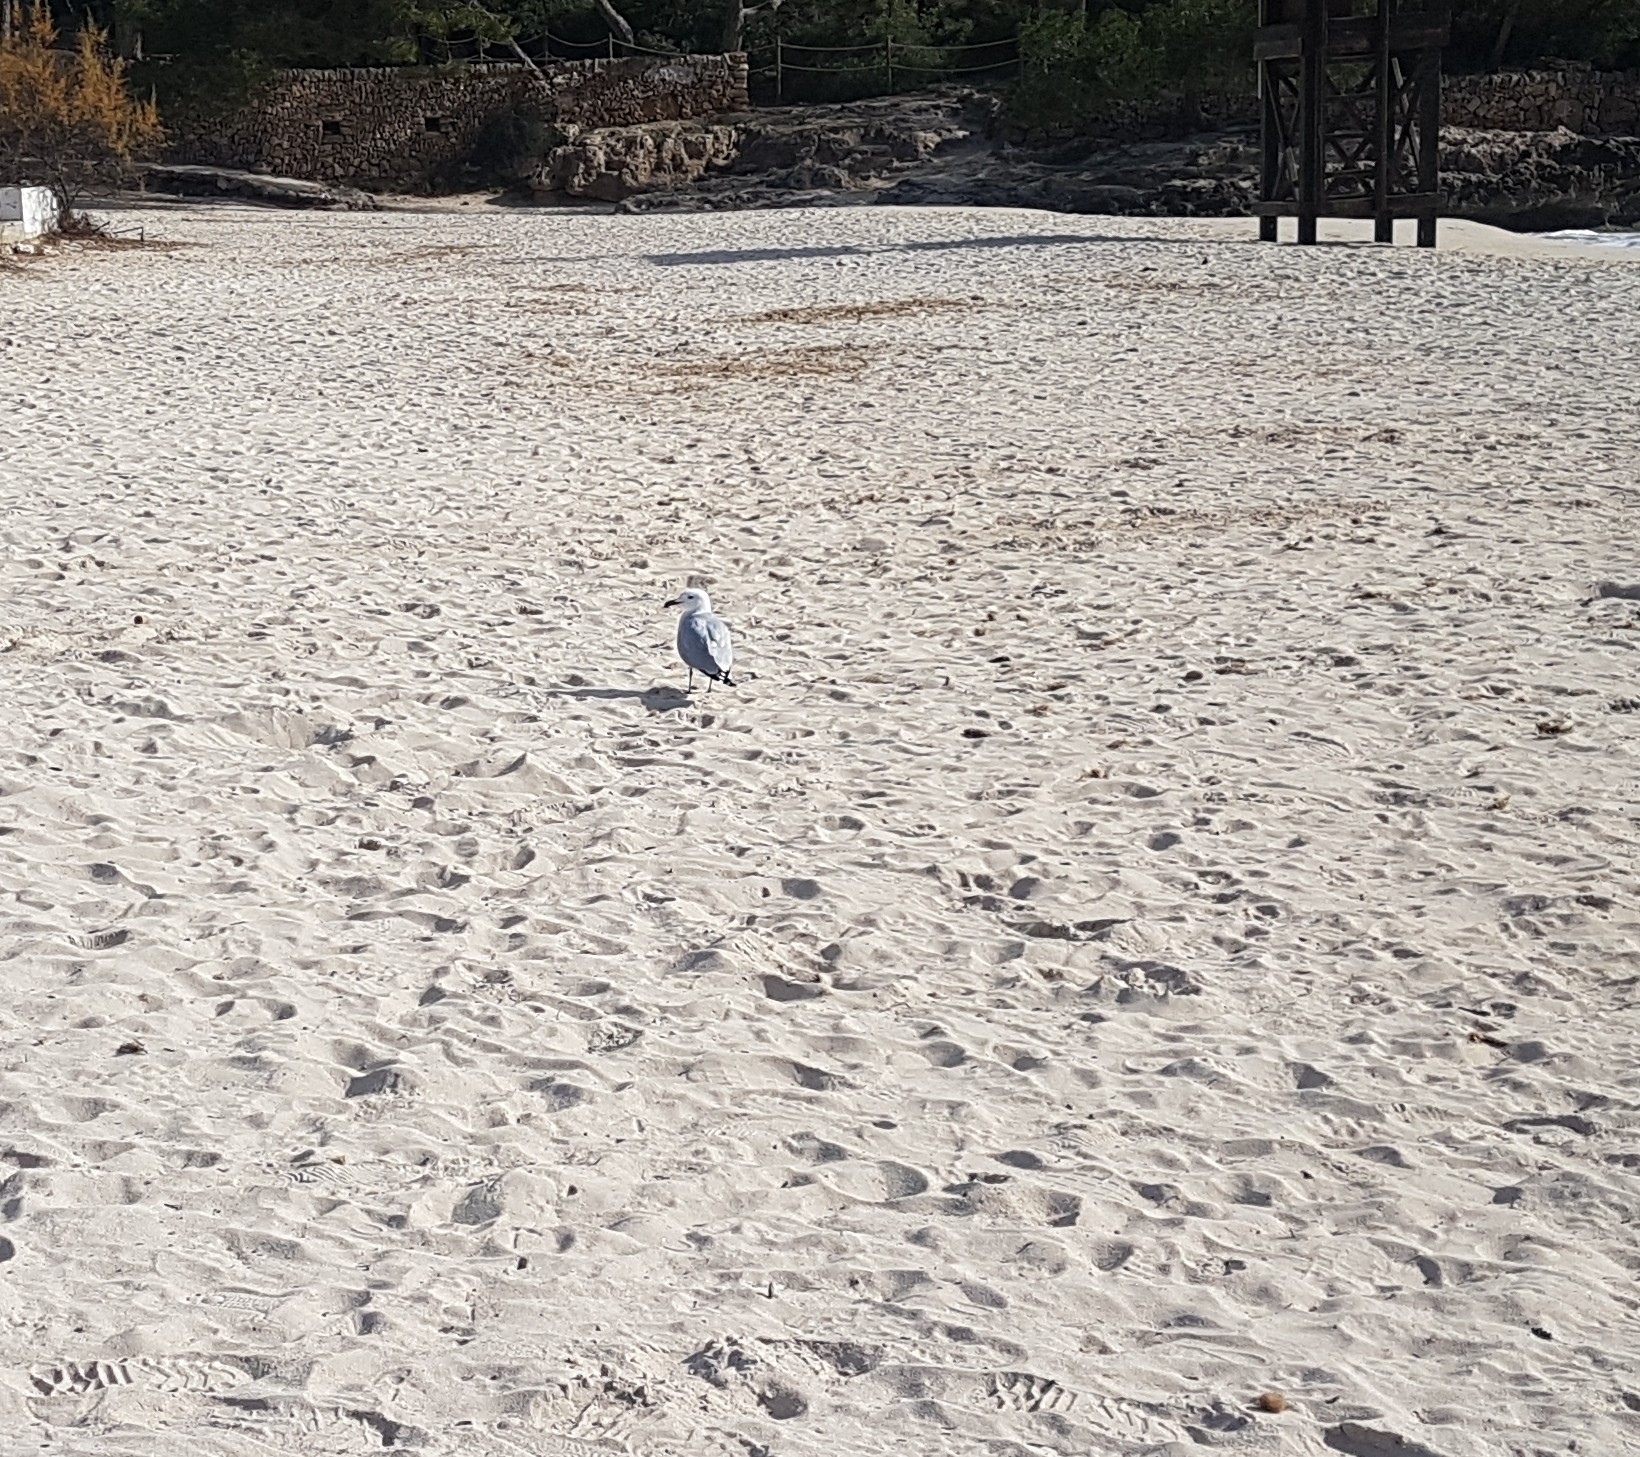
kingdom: Animalia
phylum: Chordata
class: Aves
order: Charadriiformes
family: Laridae
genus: Ichthyaetus
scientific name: Ichthyaetus audouinii
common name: Audouin's gull
